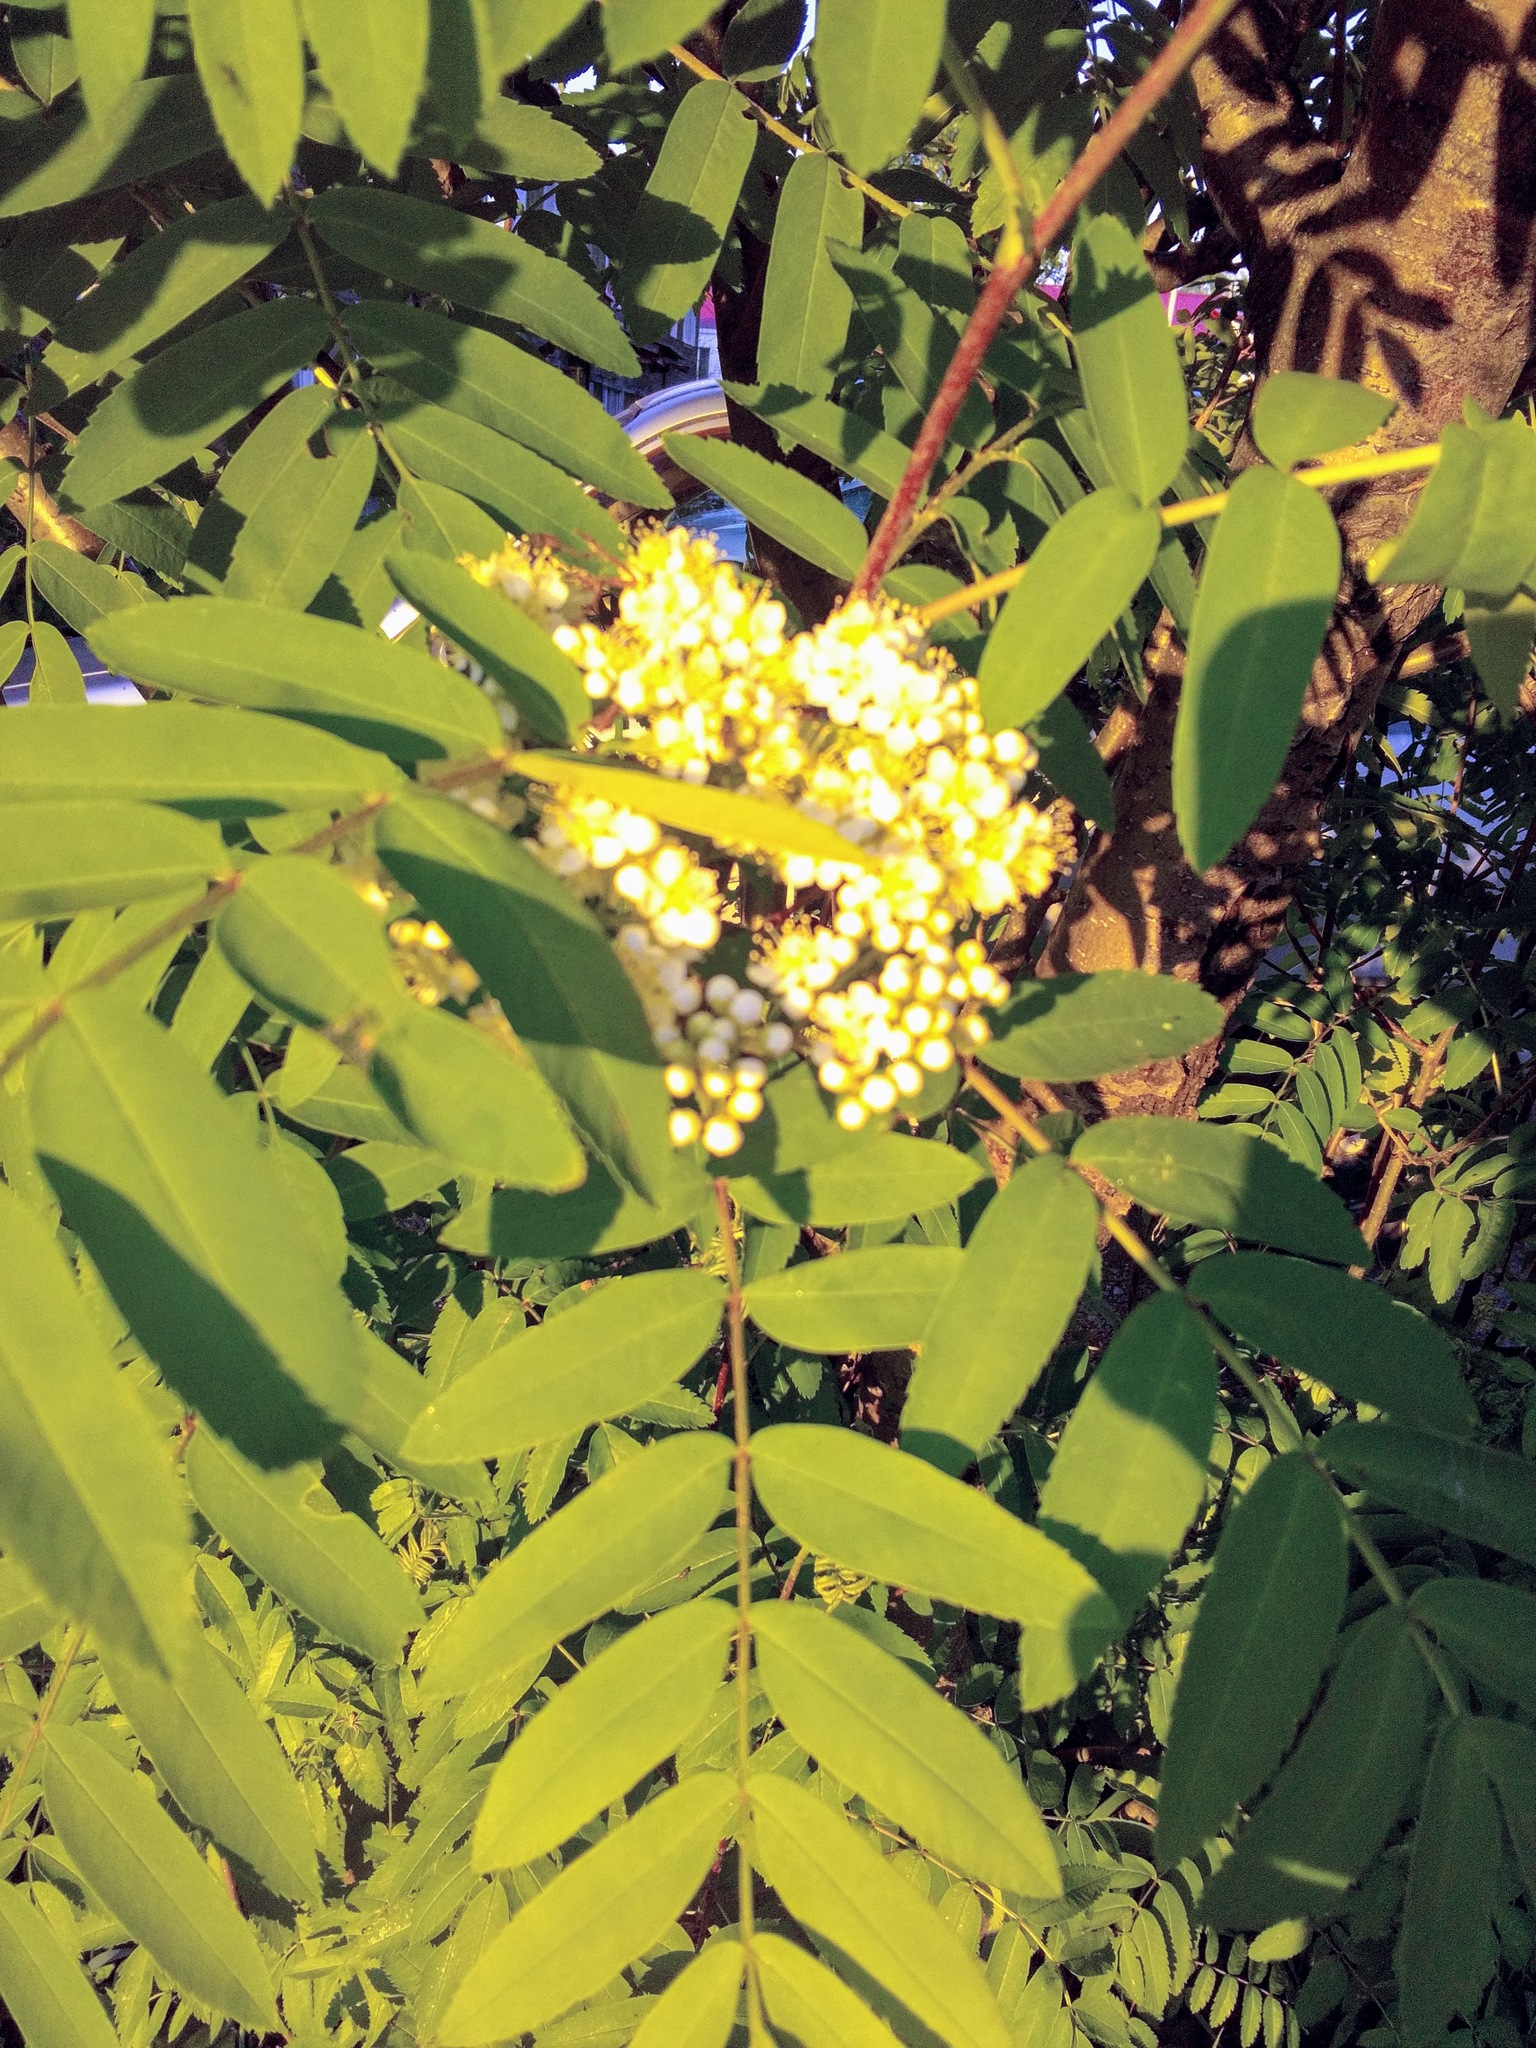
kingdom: Plantae
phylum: Tracheophyta
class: Magnoliopsida
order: Rosales
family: Rosaceae
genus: Sorbus
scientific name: Sorbus aucuparia
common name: Rowan
